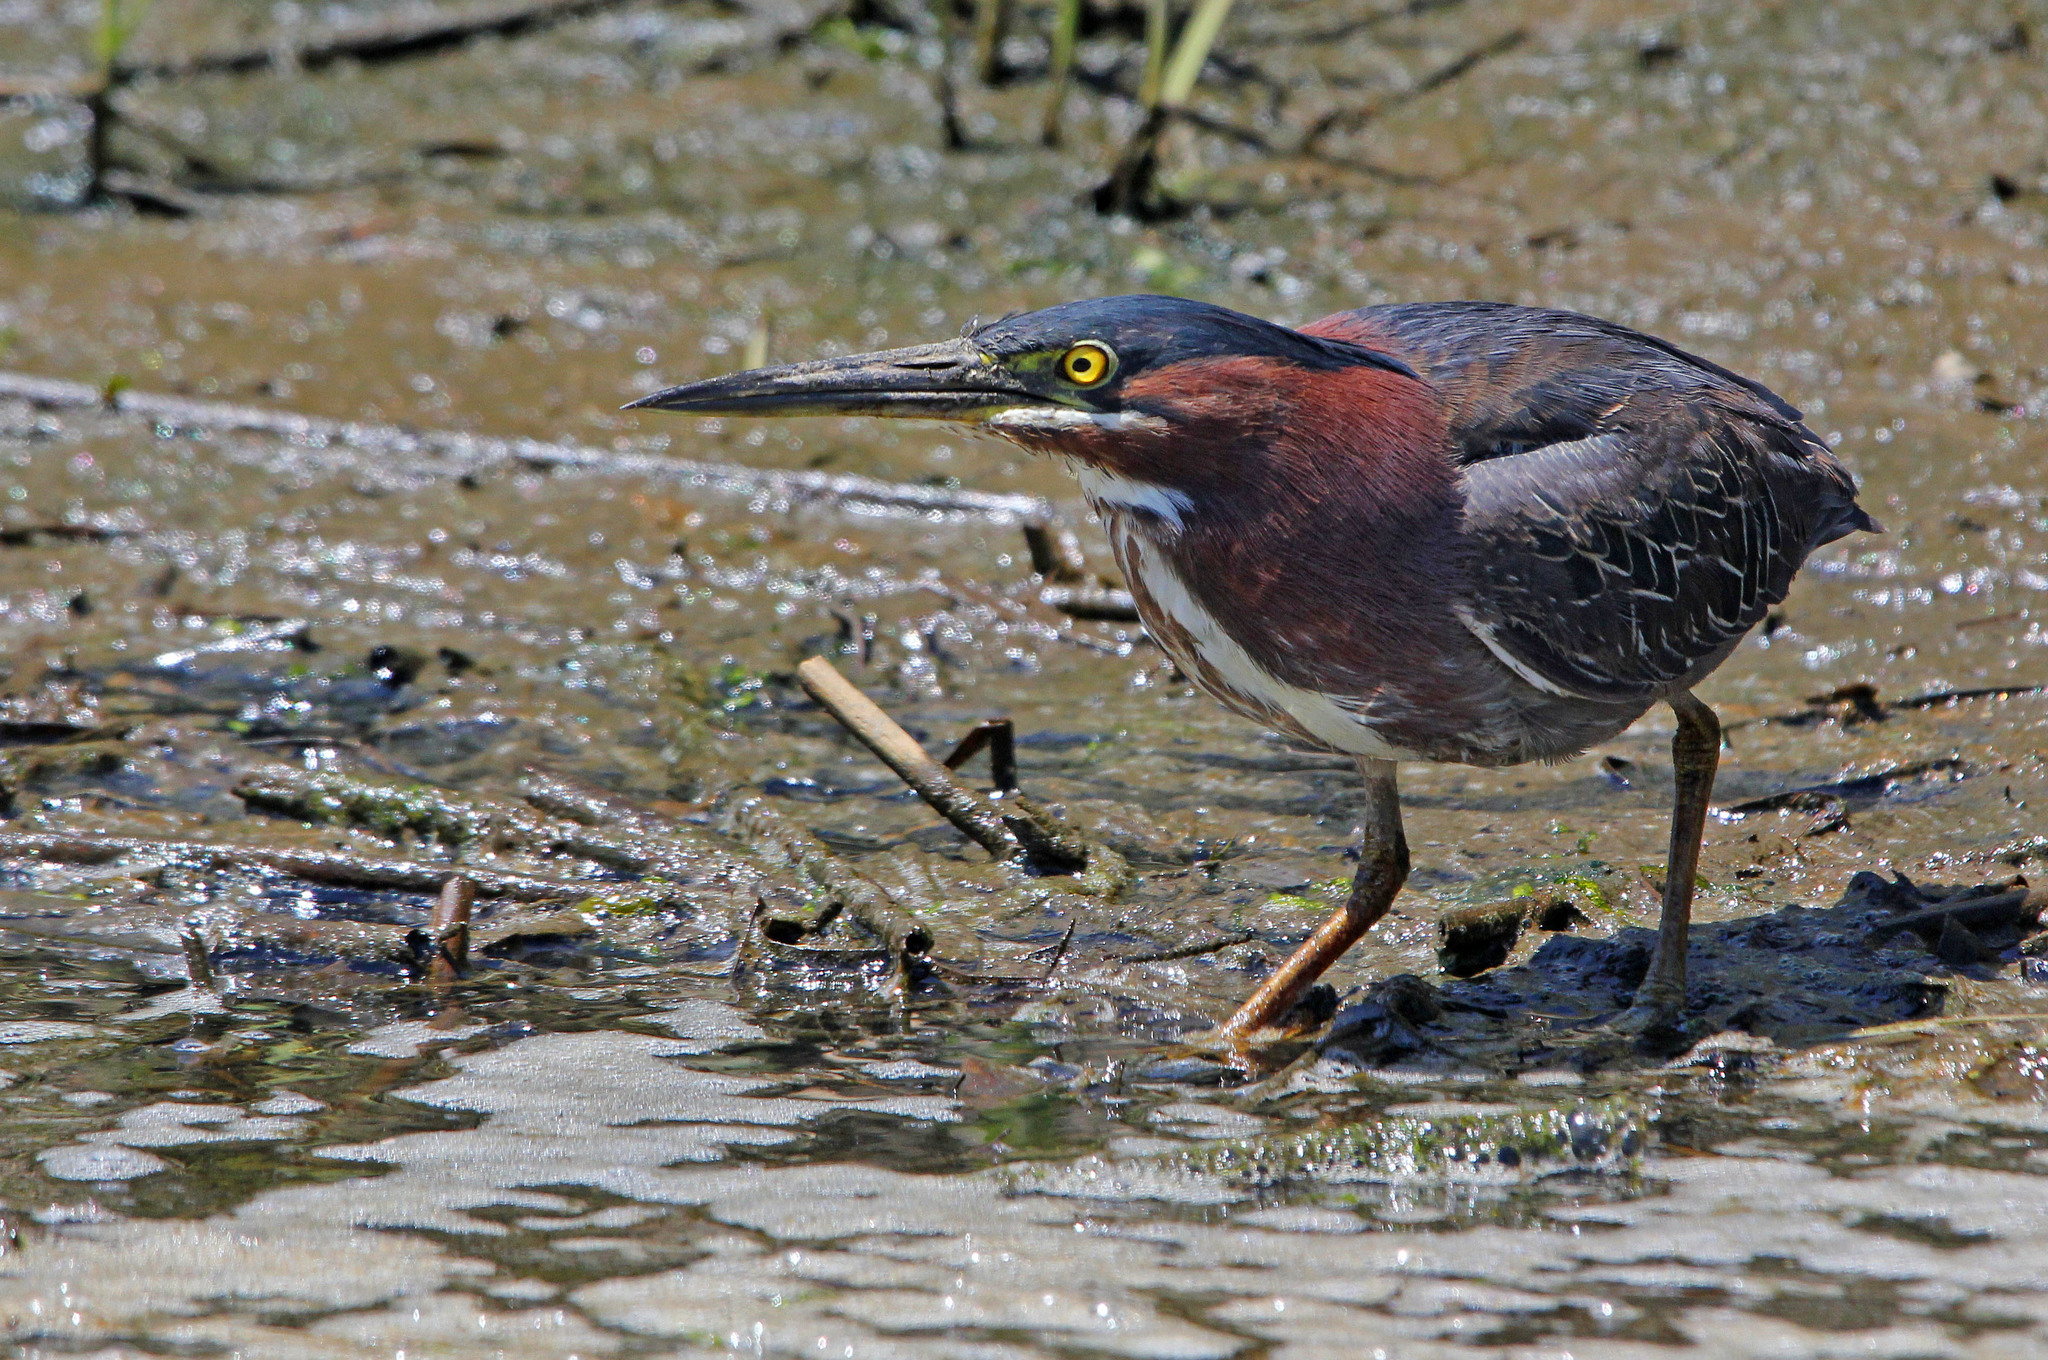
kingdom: Animalia
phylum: Chordata
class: Aves
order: Pelecaniformes
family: Ardeidae
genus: Butorides
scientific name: Butorides virescens
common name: Green heron
